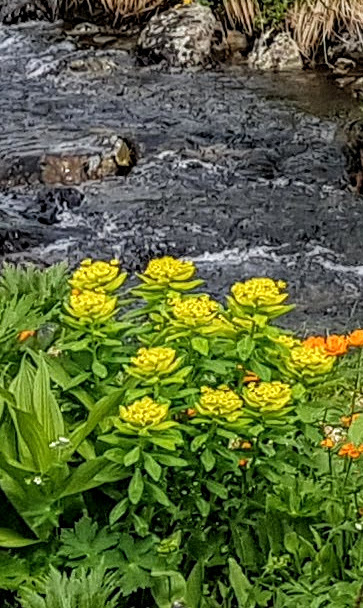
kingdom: Plantae
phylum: Tracheophyta
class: Magnoliopsida
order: Malpighiales
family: Euphorbiaceae
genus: Euphorbia
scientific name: Euphorbia pilosa
